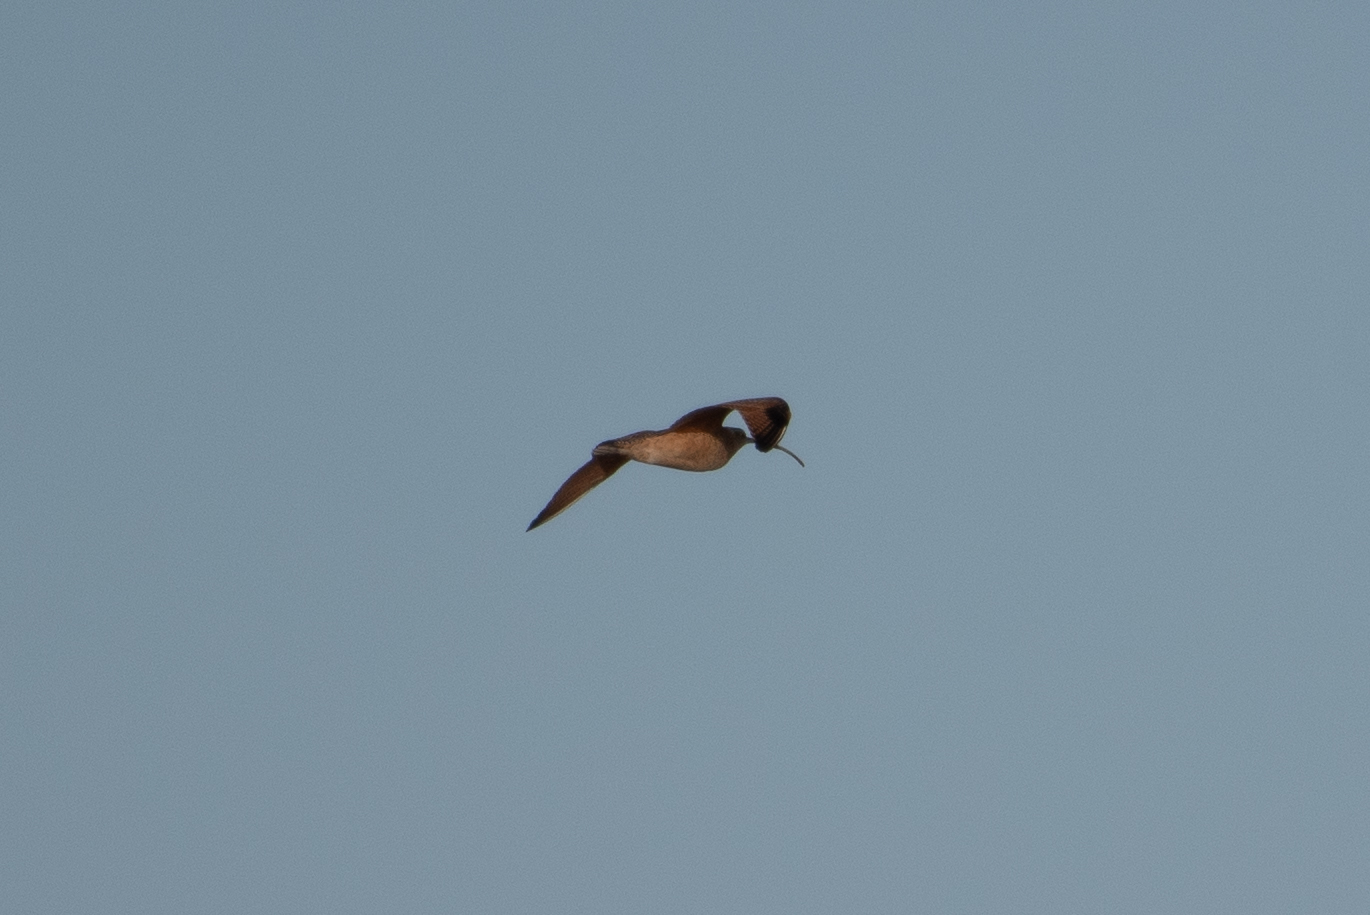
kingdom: Animalia
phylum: Chordata
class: Aves
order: Charadriiformes
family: Scolopacidae
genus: Numenius
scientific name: Numenius americanus
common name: Long-billed curlew
